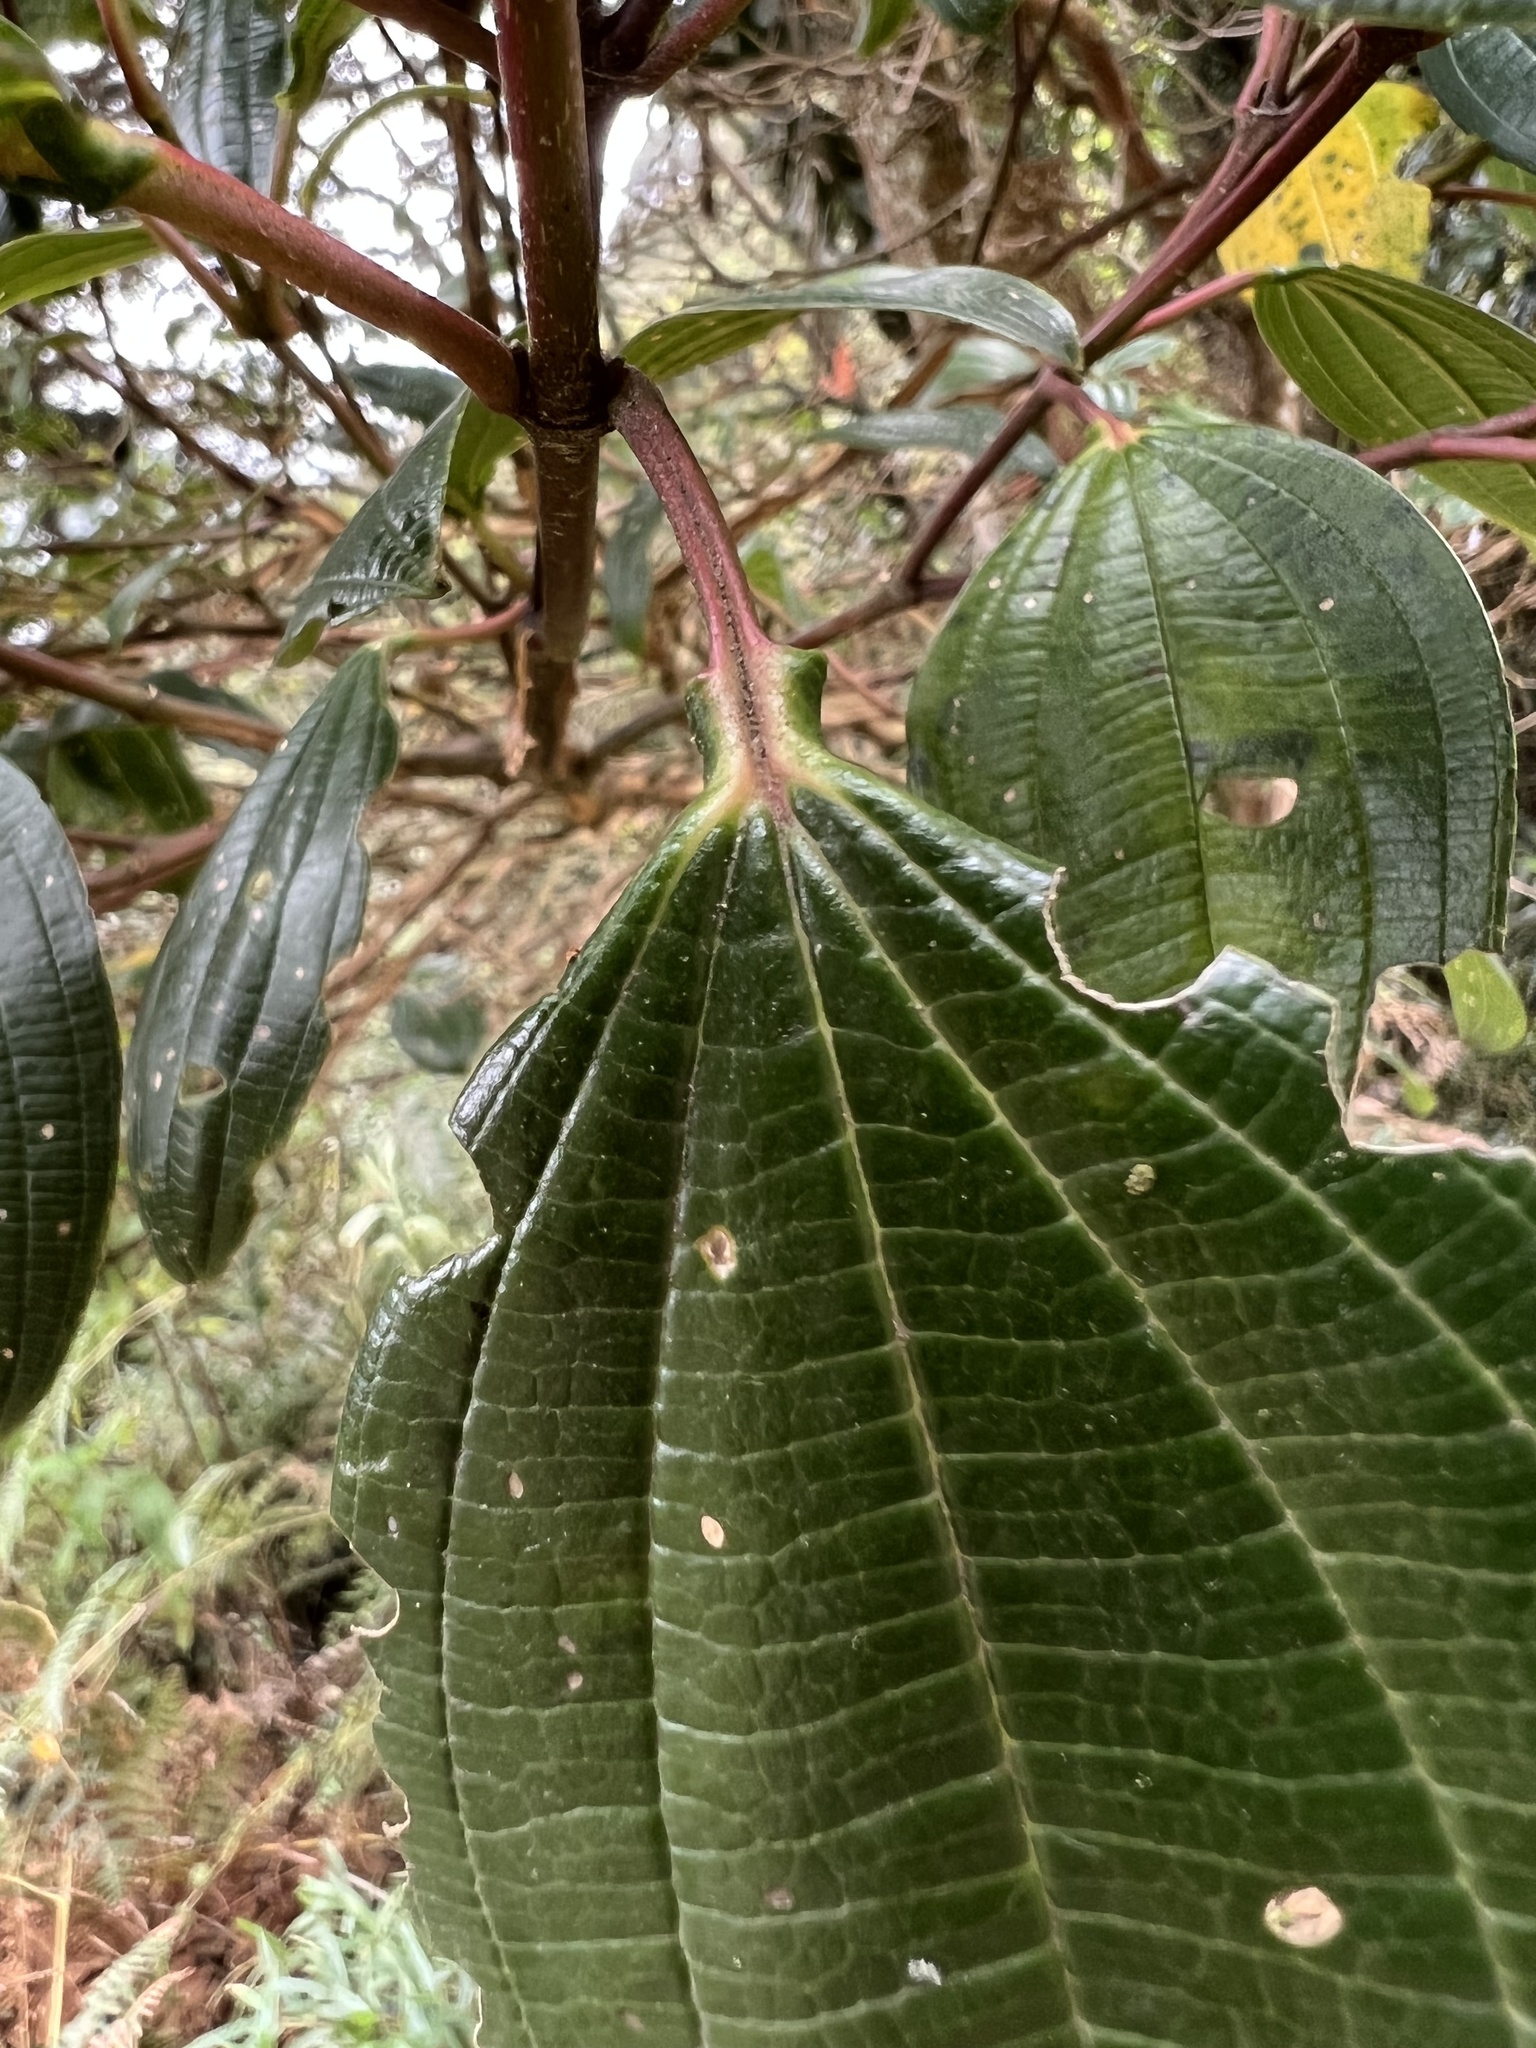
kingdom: Plantae
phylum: Tracheophyta
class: Magnoliopsida
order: Myrtales
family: Melastomataceae
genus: Axinaea
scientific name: Axinaea macrophylla
